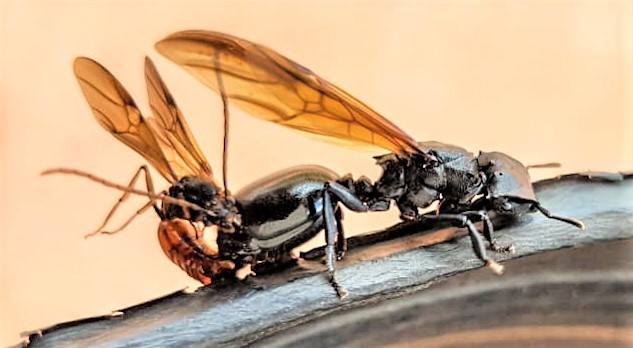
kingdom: Animalia
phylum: Arthropoda
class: Insecta
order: Hymenoptera
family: Formicidae
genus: Cephalotes
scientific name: Cephalotes atratus
